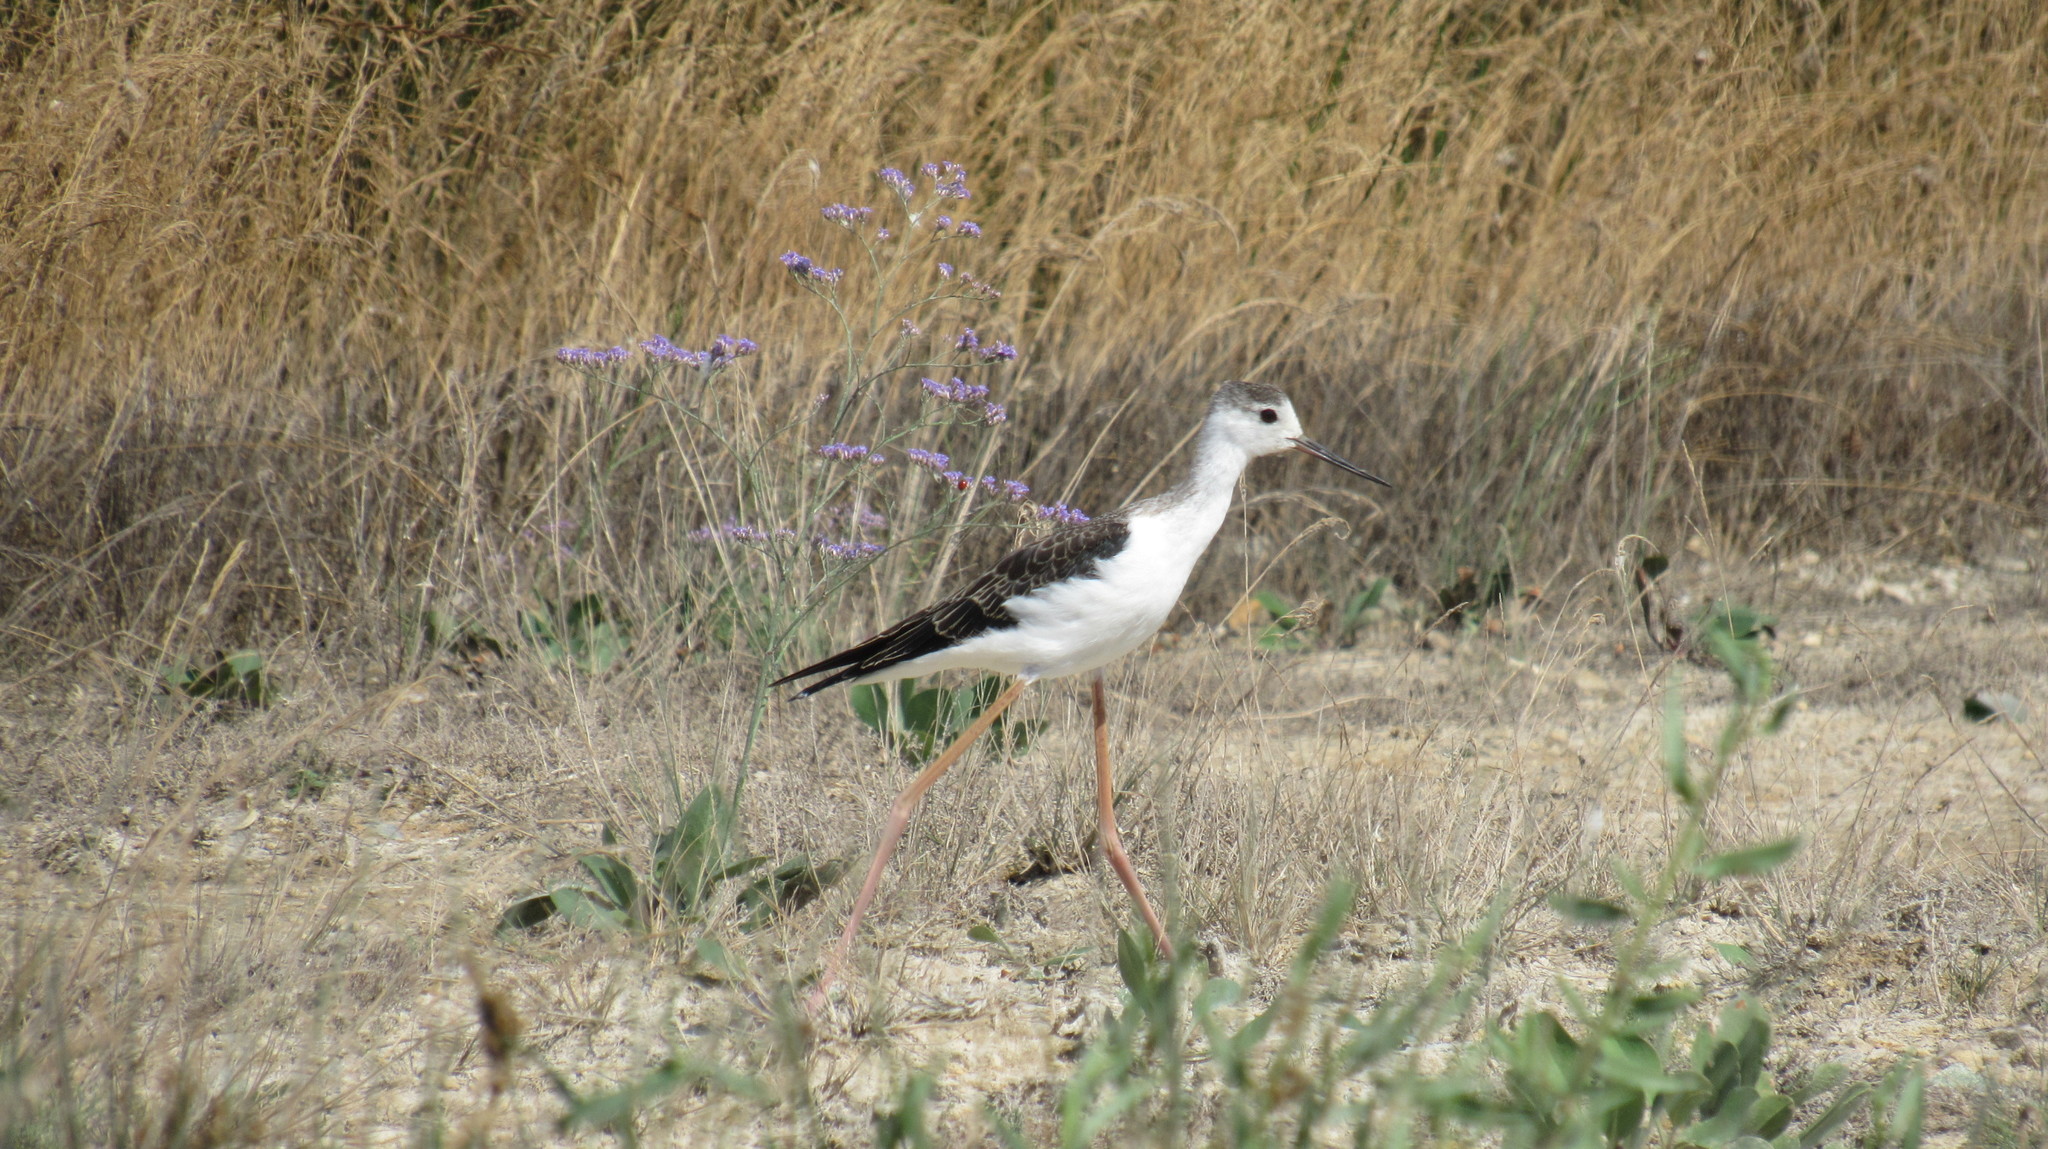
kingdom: Animalia
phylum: Chordata
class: Aves
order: Charadriiformes
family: Recurvirostridae
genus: Himantopus
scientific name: Himantopus himantopus
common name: Black-winged stilt
